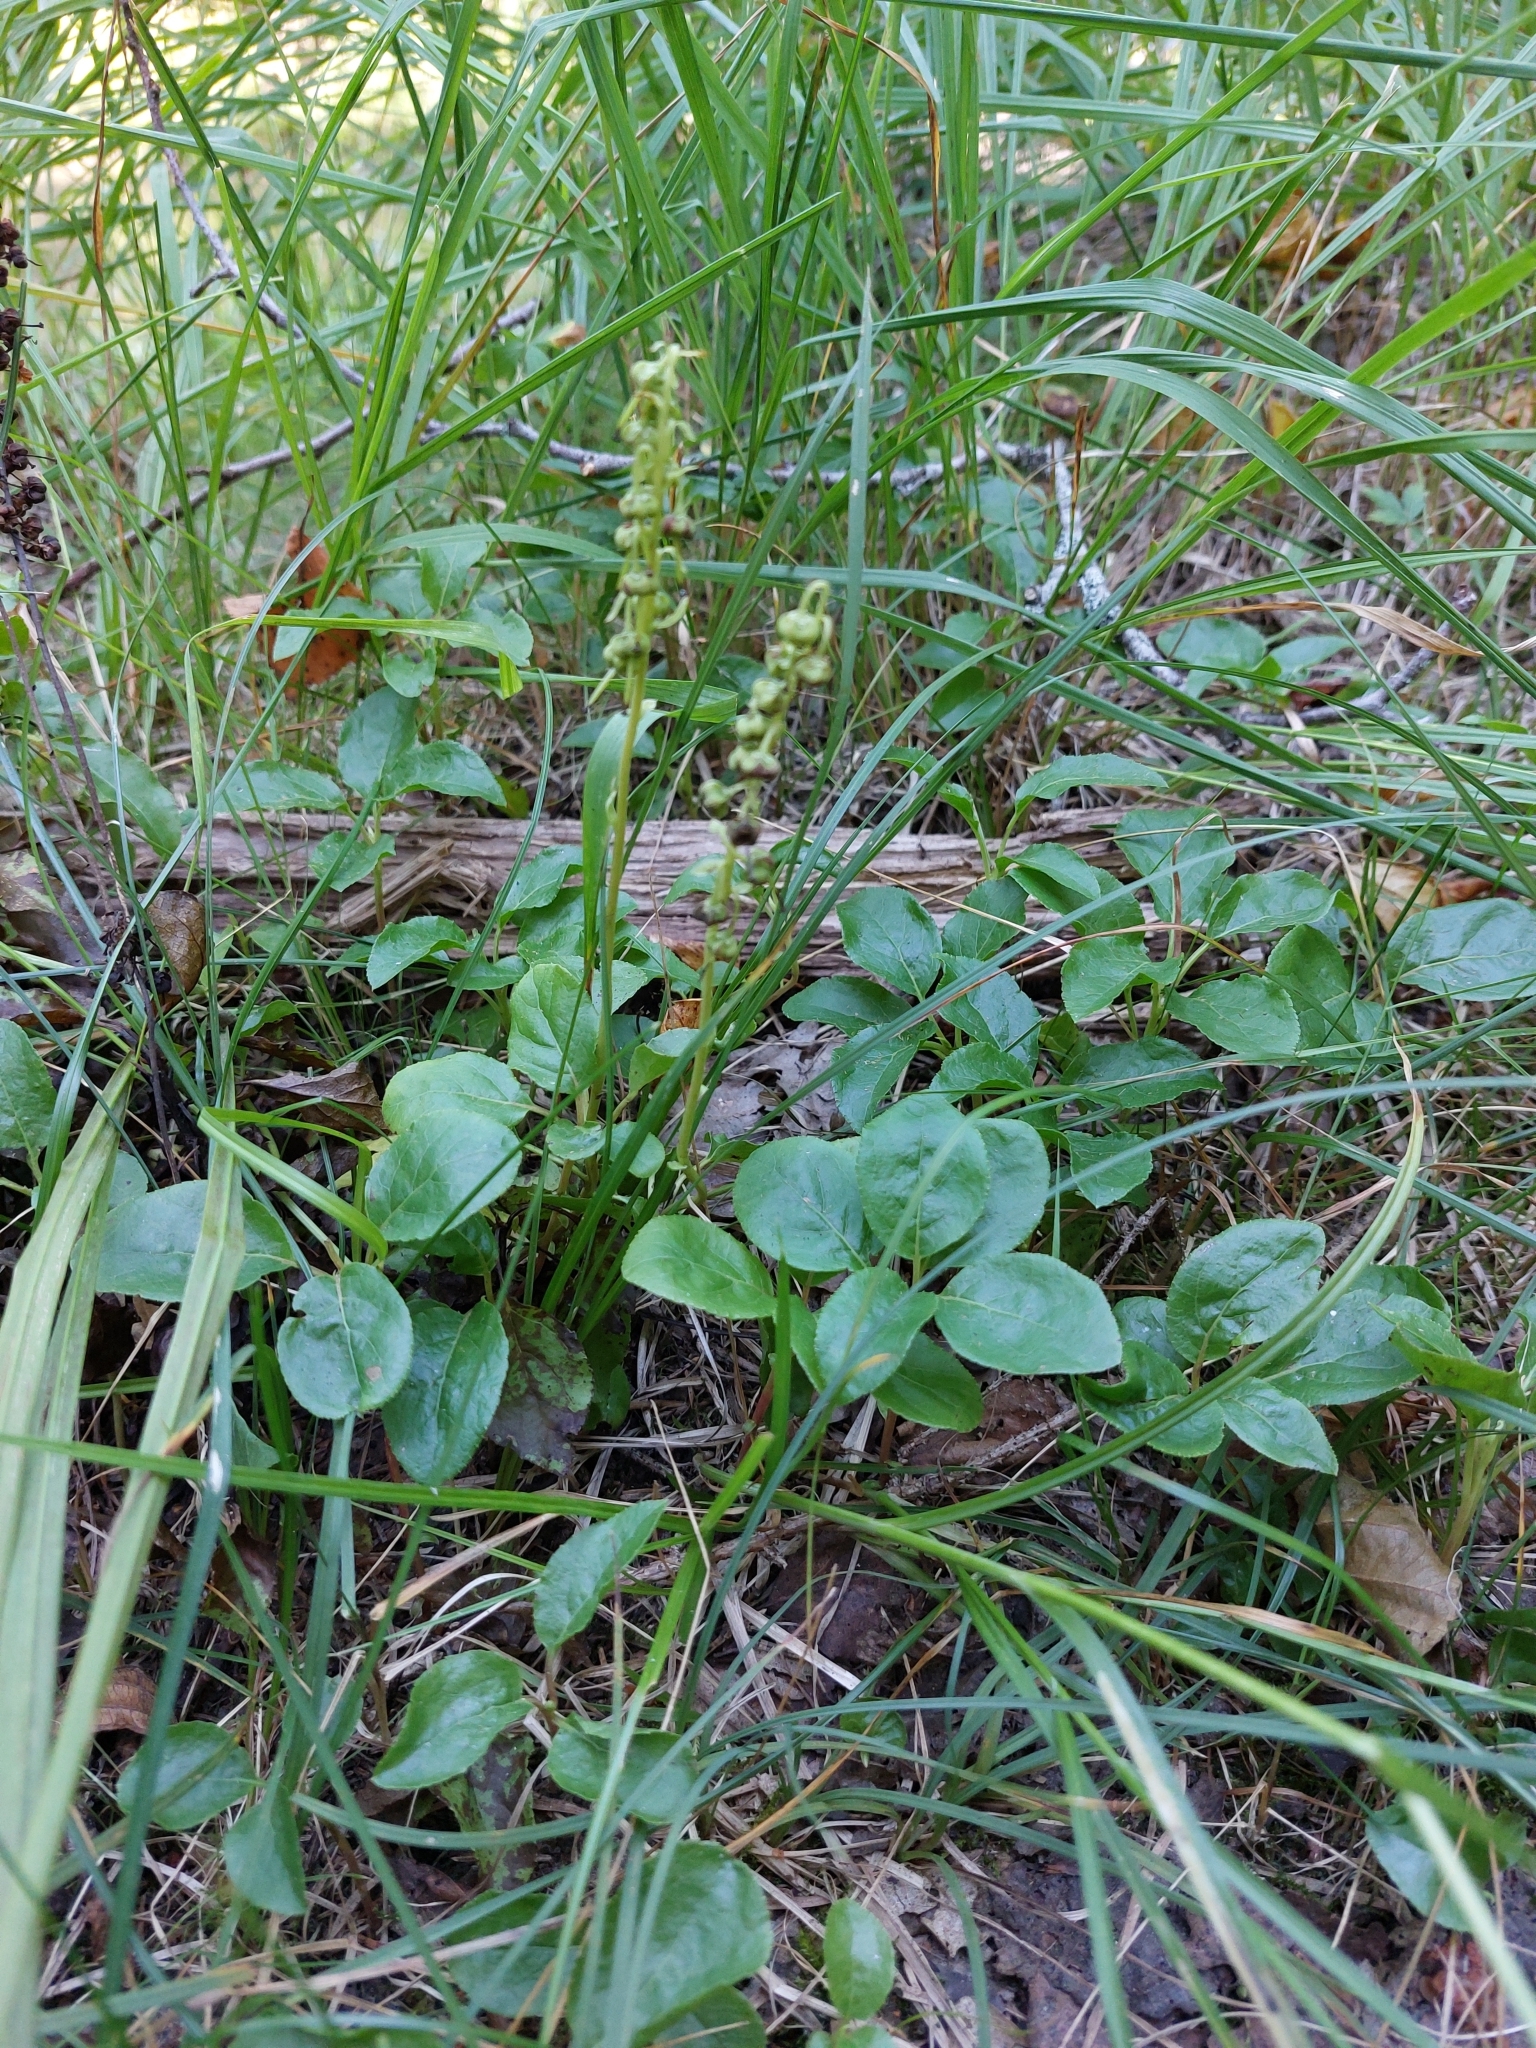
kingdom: Plantae
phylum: Tracheophyta
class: Magnoliopsida
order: Ericales
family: Ericaceae
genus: Orthilia
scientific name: Orthilia secunda
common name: One-sided orthilia
